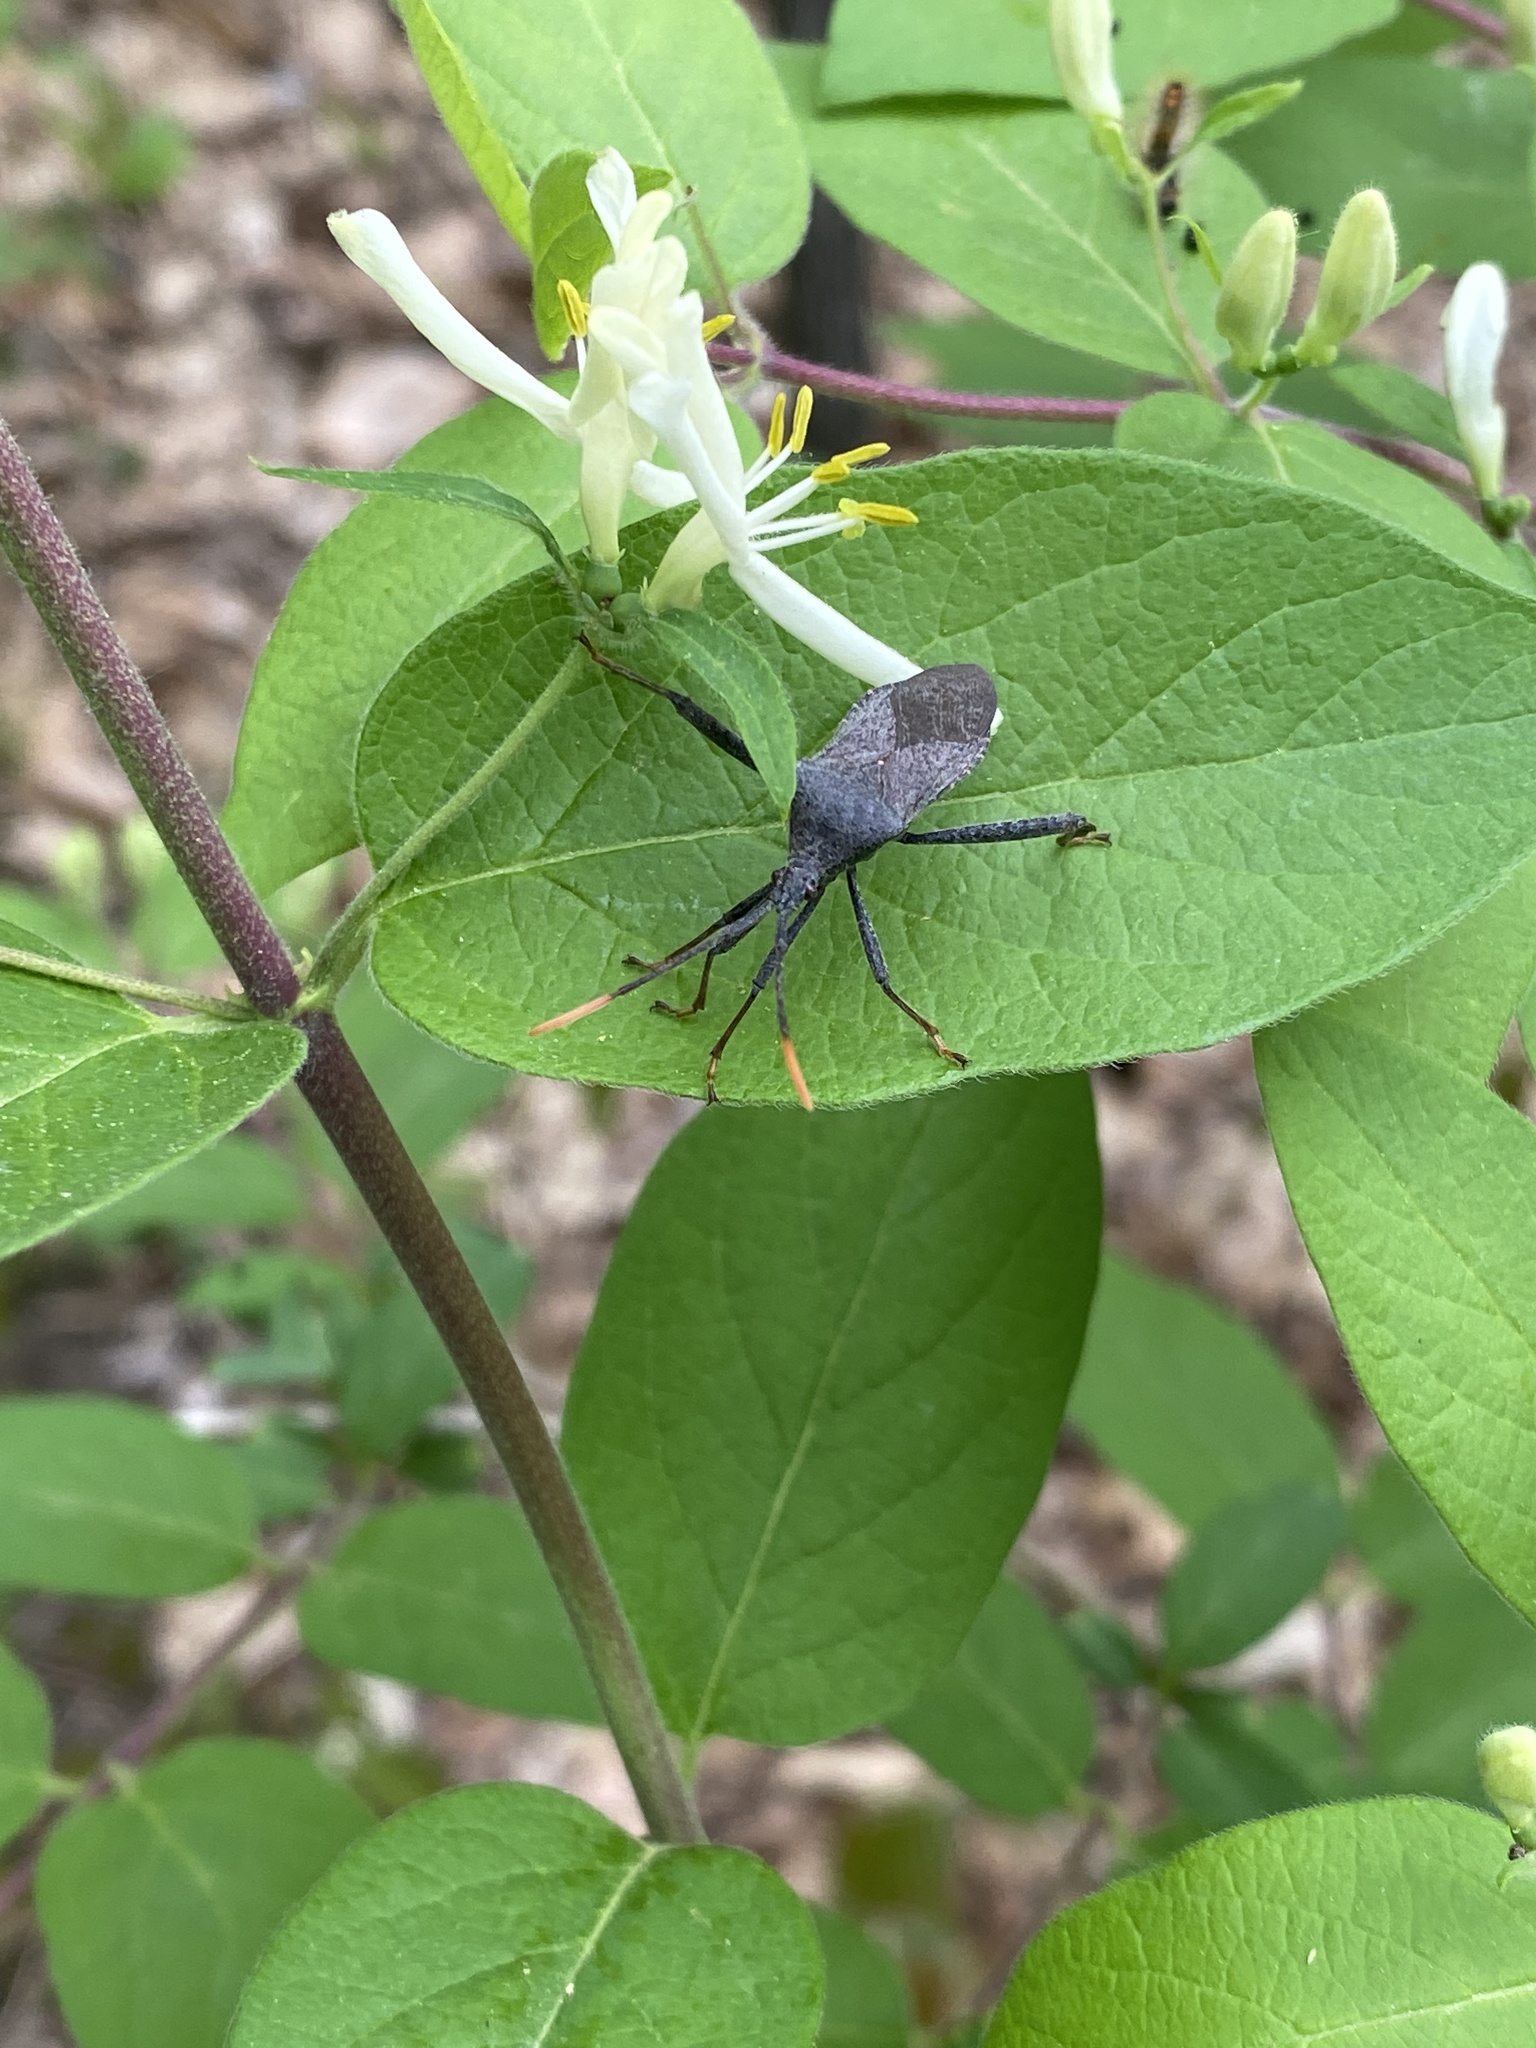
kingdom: Animalia
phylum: Arthropoda
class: Insecta
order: Hemiptera
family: Coreidae
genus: Acanthocephala
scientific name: Acanthocephala terminalis
